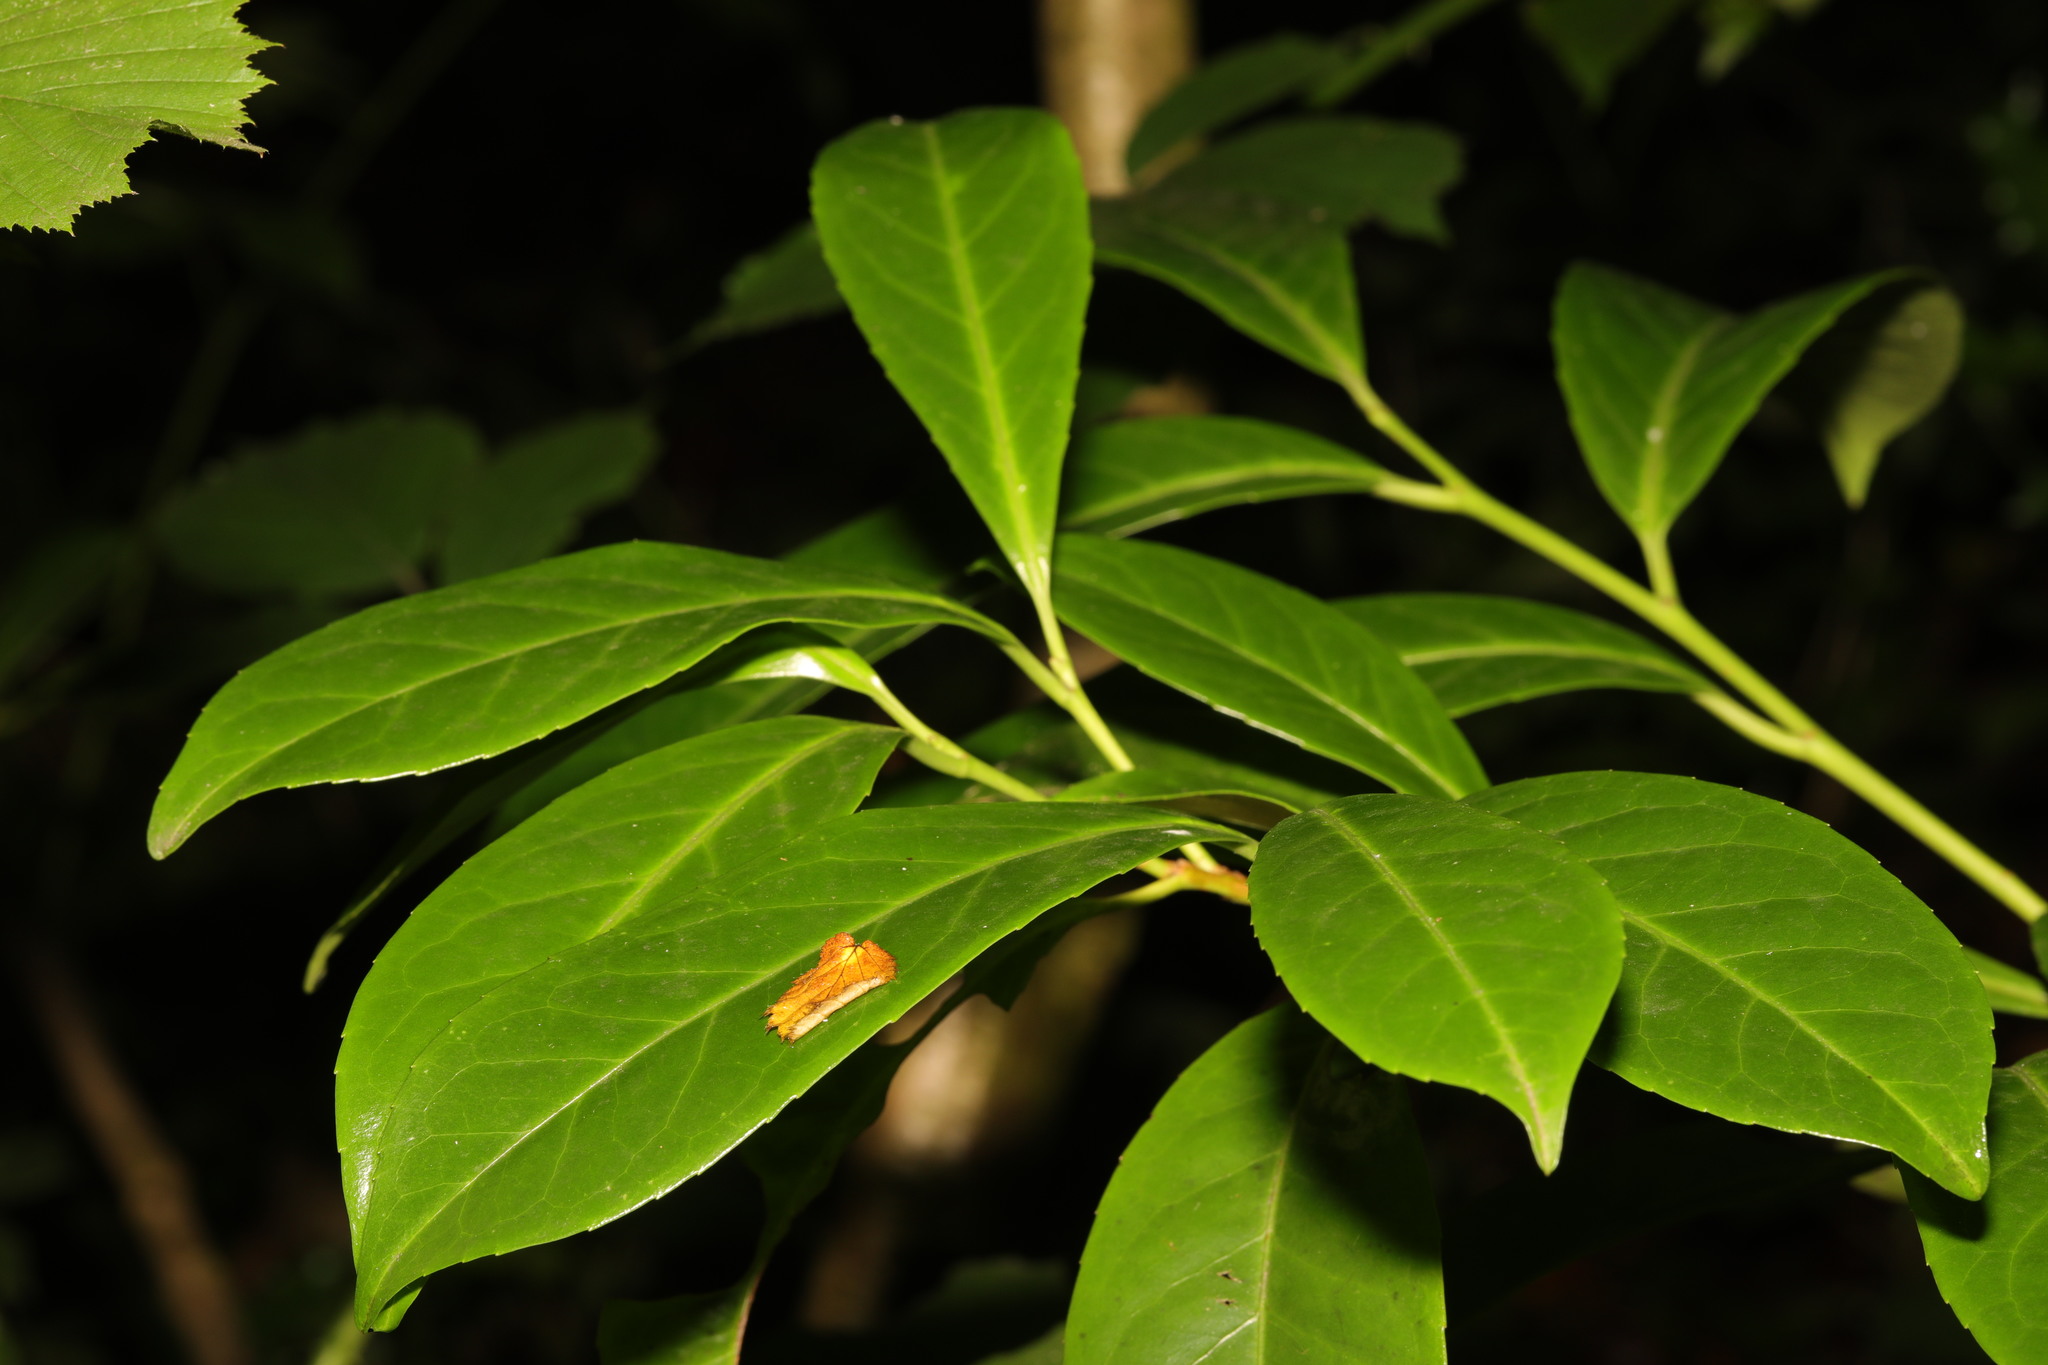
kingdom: Plantae
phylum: Tracheophyta
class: Magnoliopsida
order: Rosales
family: Rosaceae
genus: Prunus
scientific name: Prunus laurocerasus
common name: Cherry laurel
